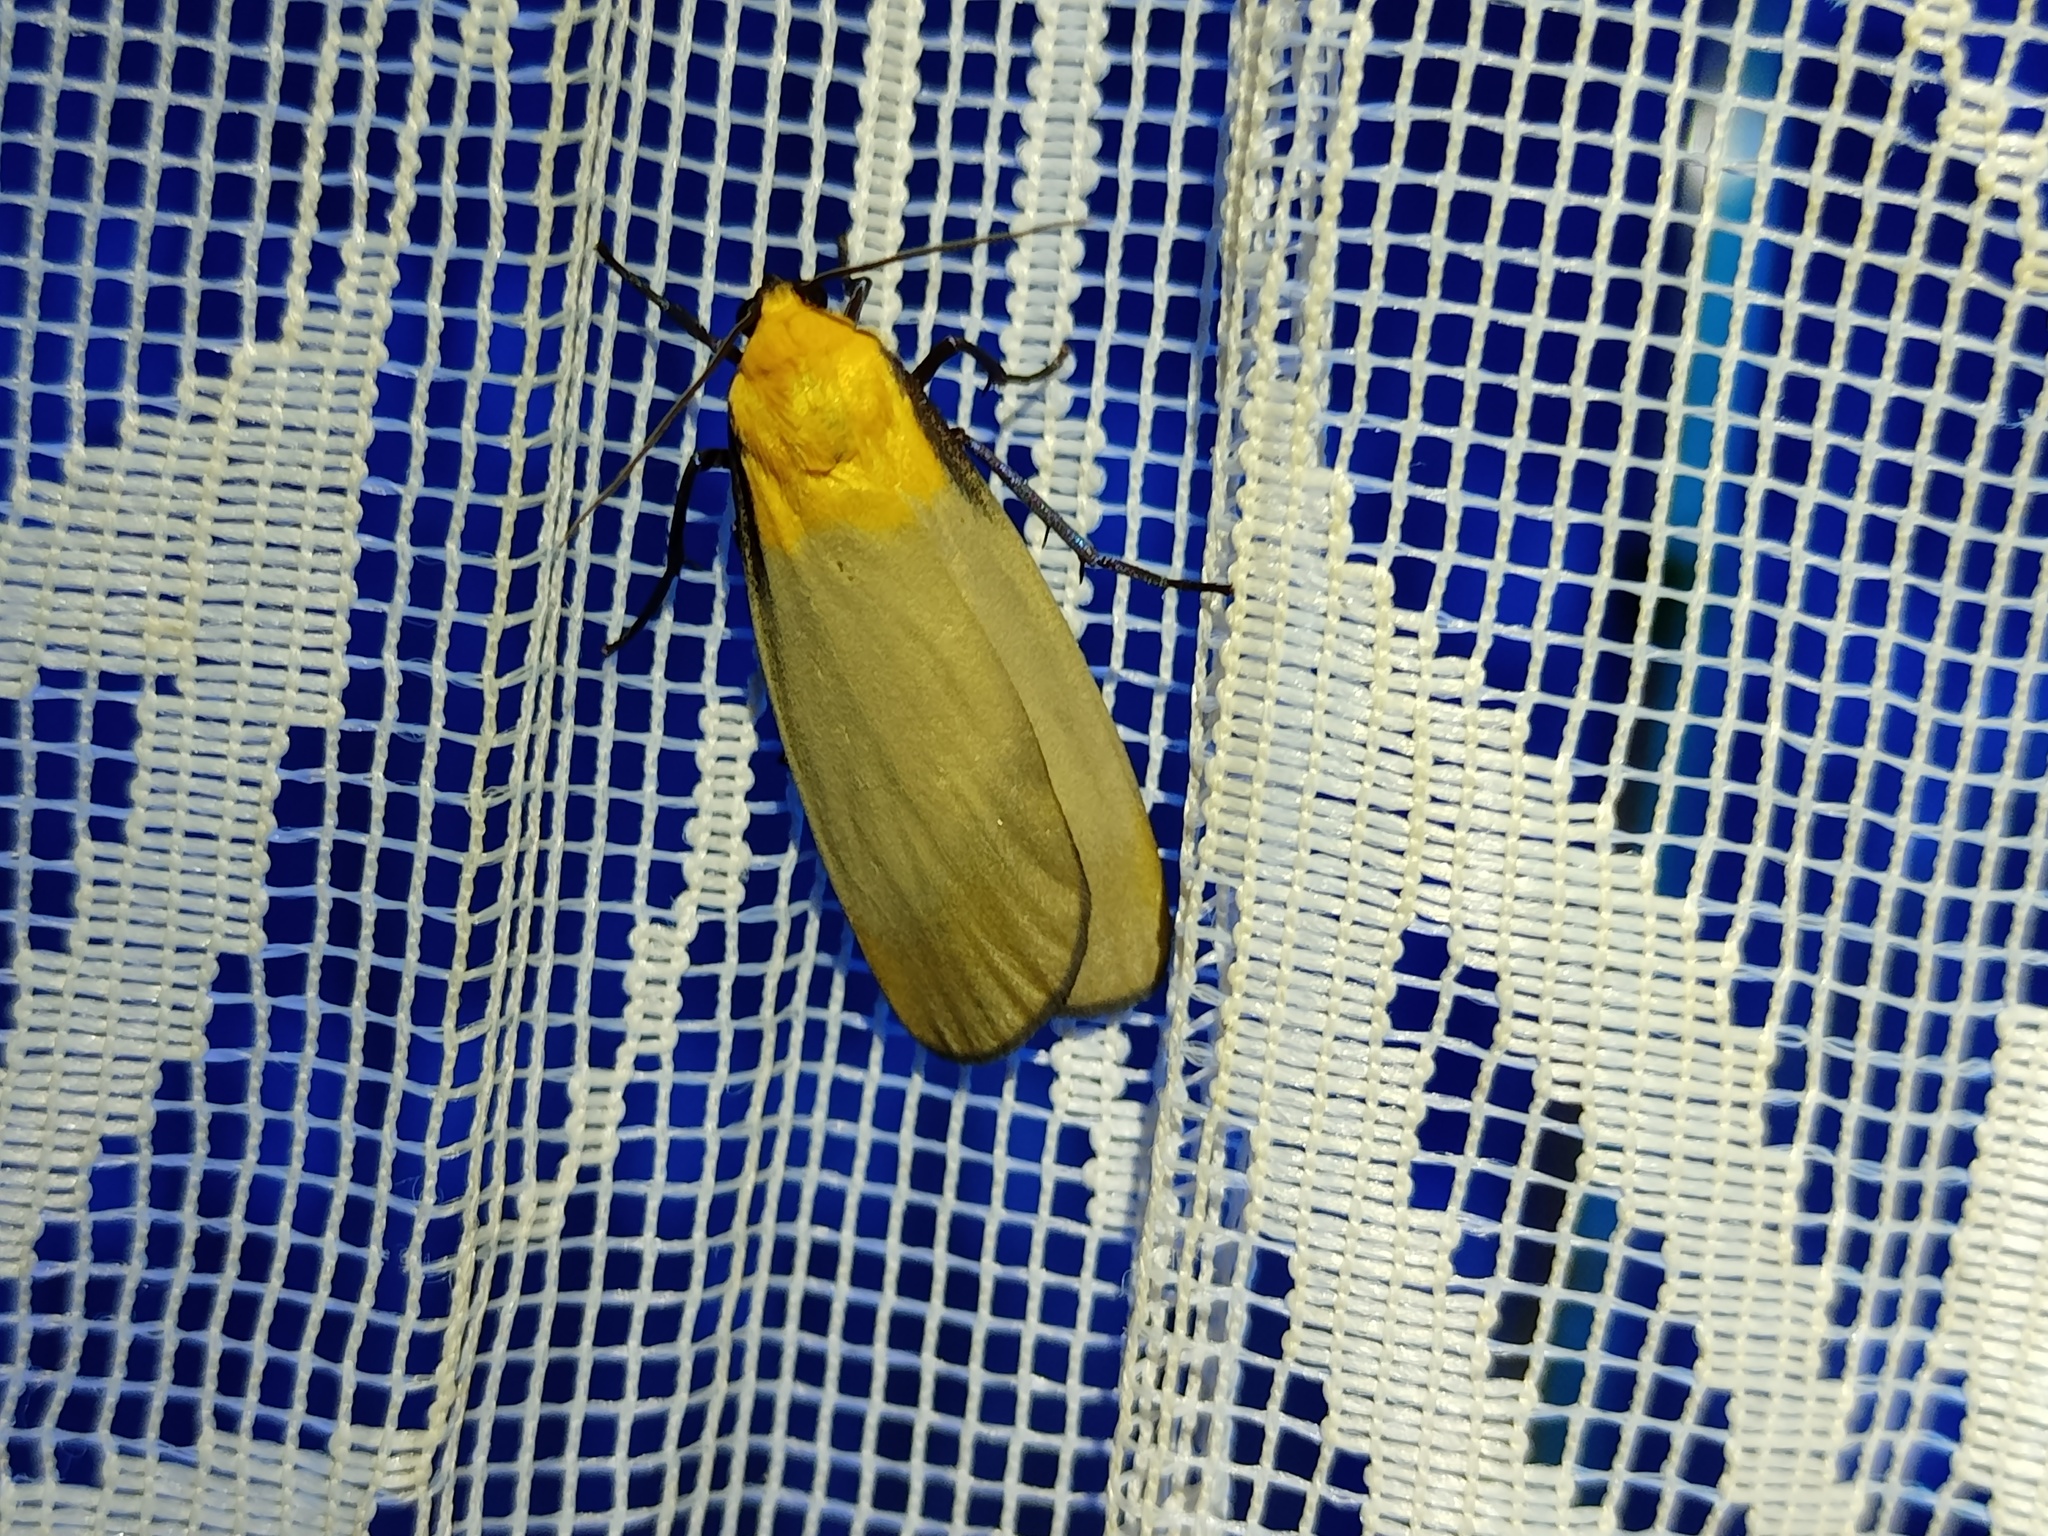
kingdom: Animalia
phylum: Arthropoda
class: Insecta
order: Lepidoptera
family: Erebidae
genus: Lithosia
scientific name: Lithosia quadra
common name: Four-spotted footman
